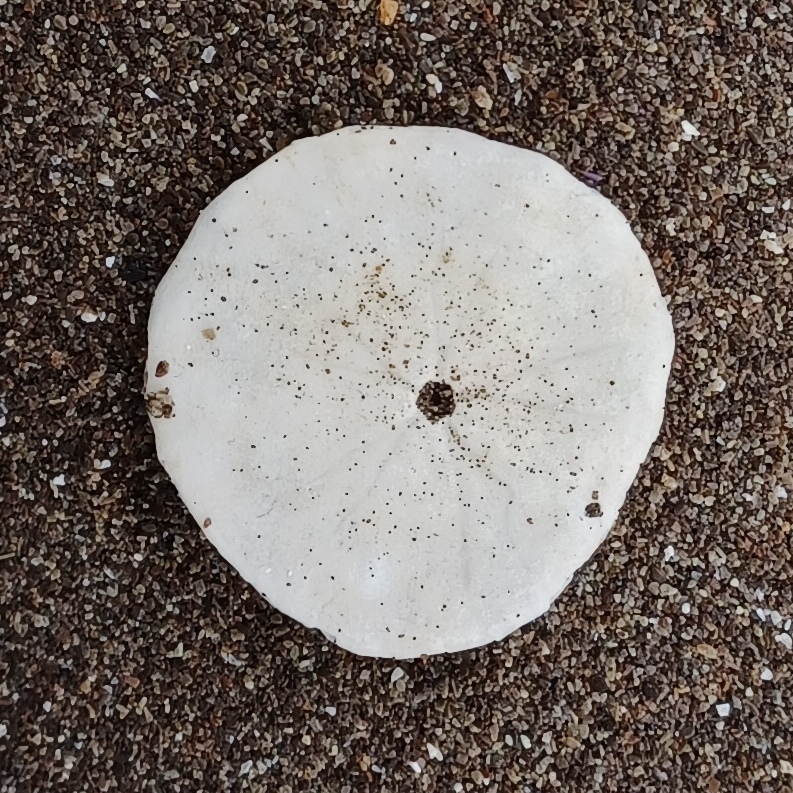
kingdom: Animalia
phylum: Echinodermata
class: Echinoidea
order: Echinolampadacea
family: Dendrasteridae
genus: Dendraster
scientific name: Dendraster excentricus
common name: Eccentric sand dollar sea urchin
